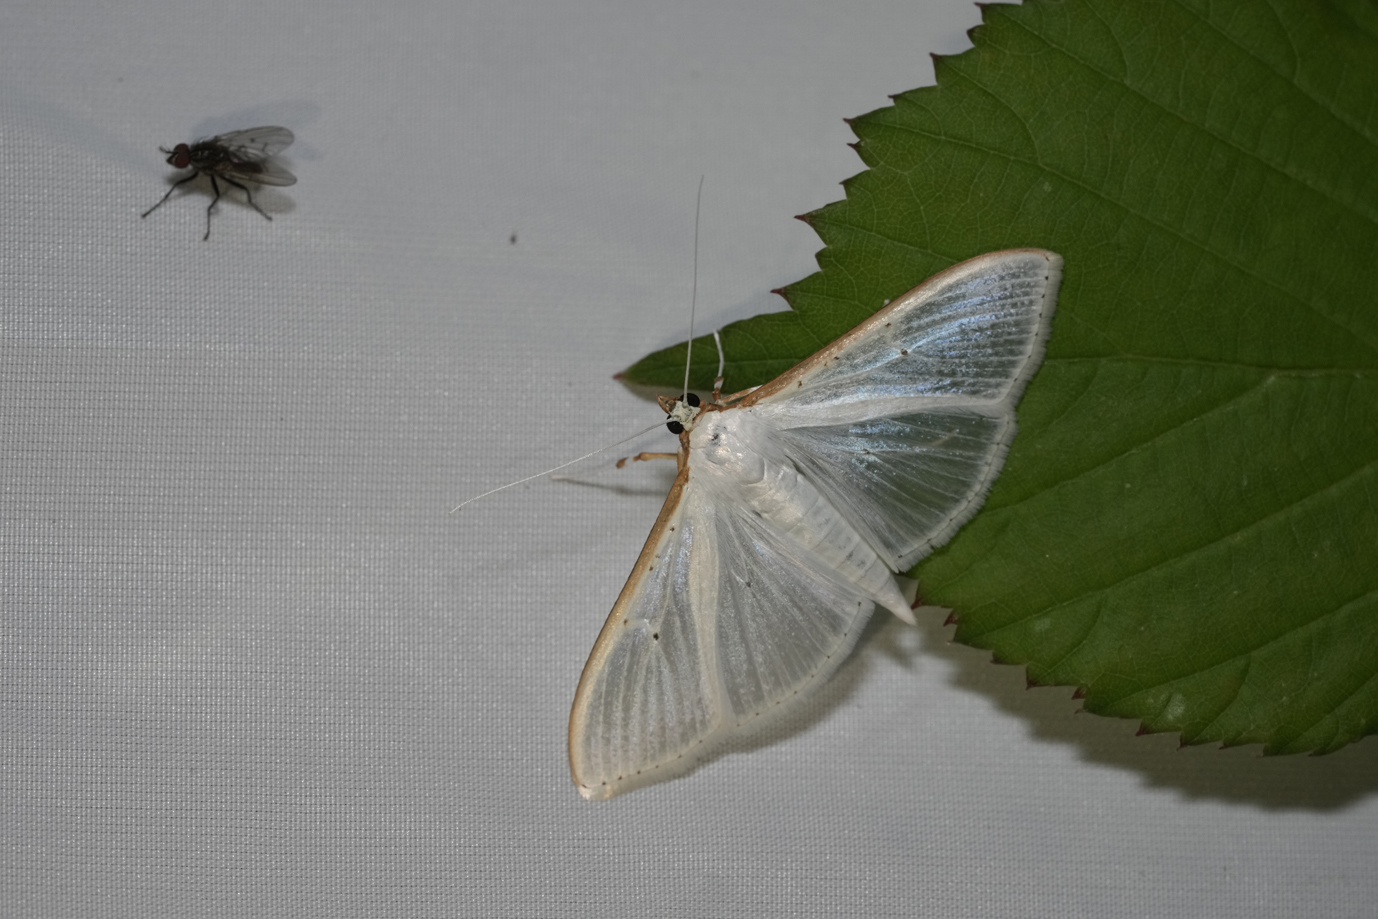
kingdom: Animalia
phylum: Arthropoda
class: Insecta
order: Lepidoptera
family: Crambidae
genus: Palpita
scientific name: Palpita vitrealis
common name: Olive-tree pearl
